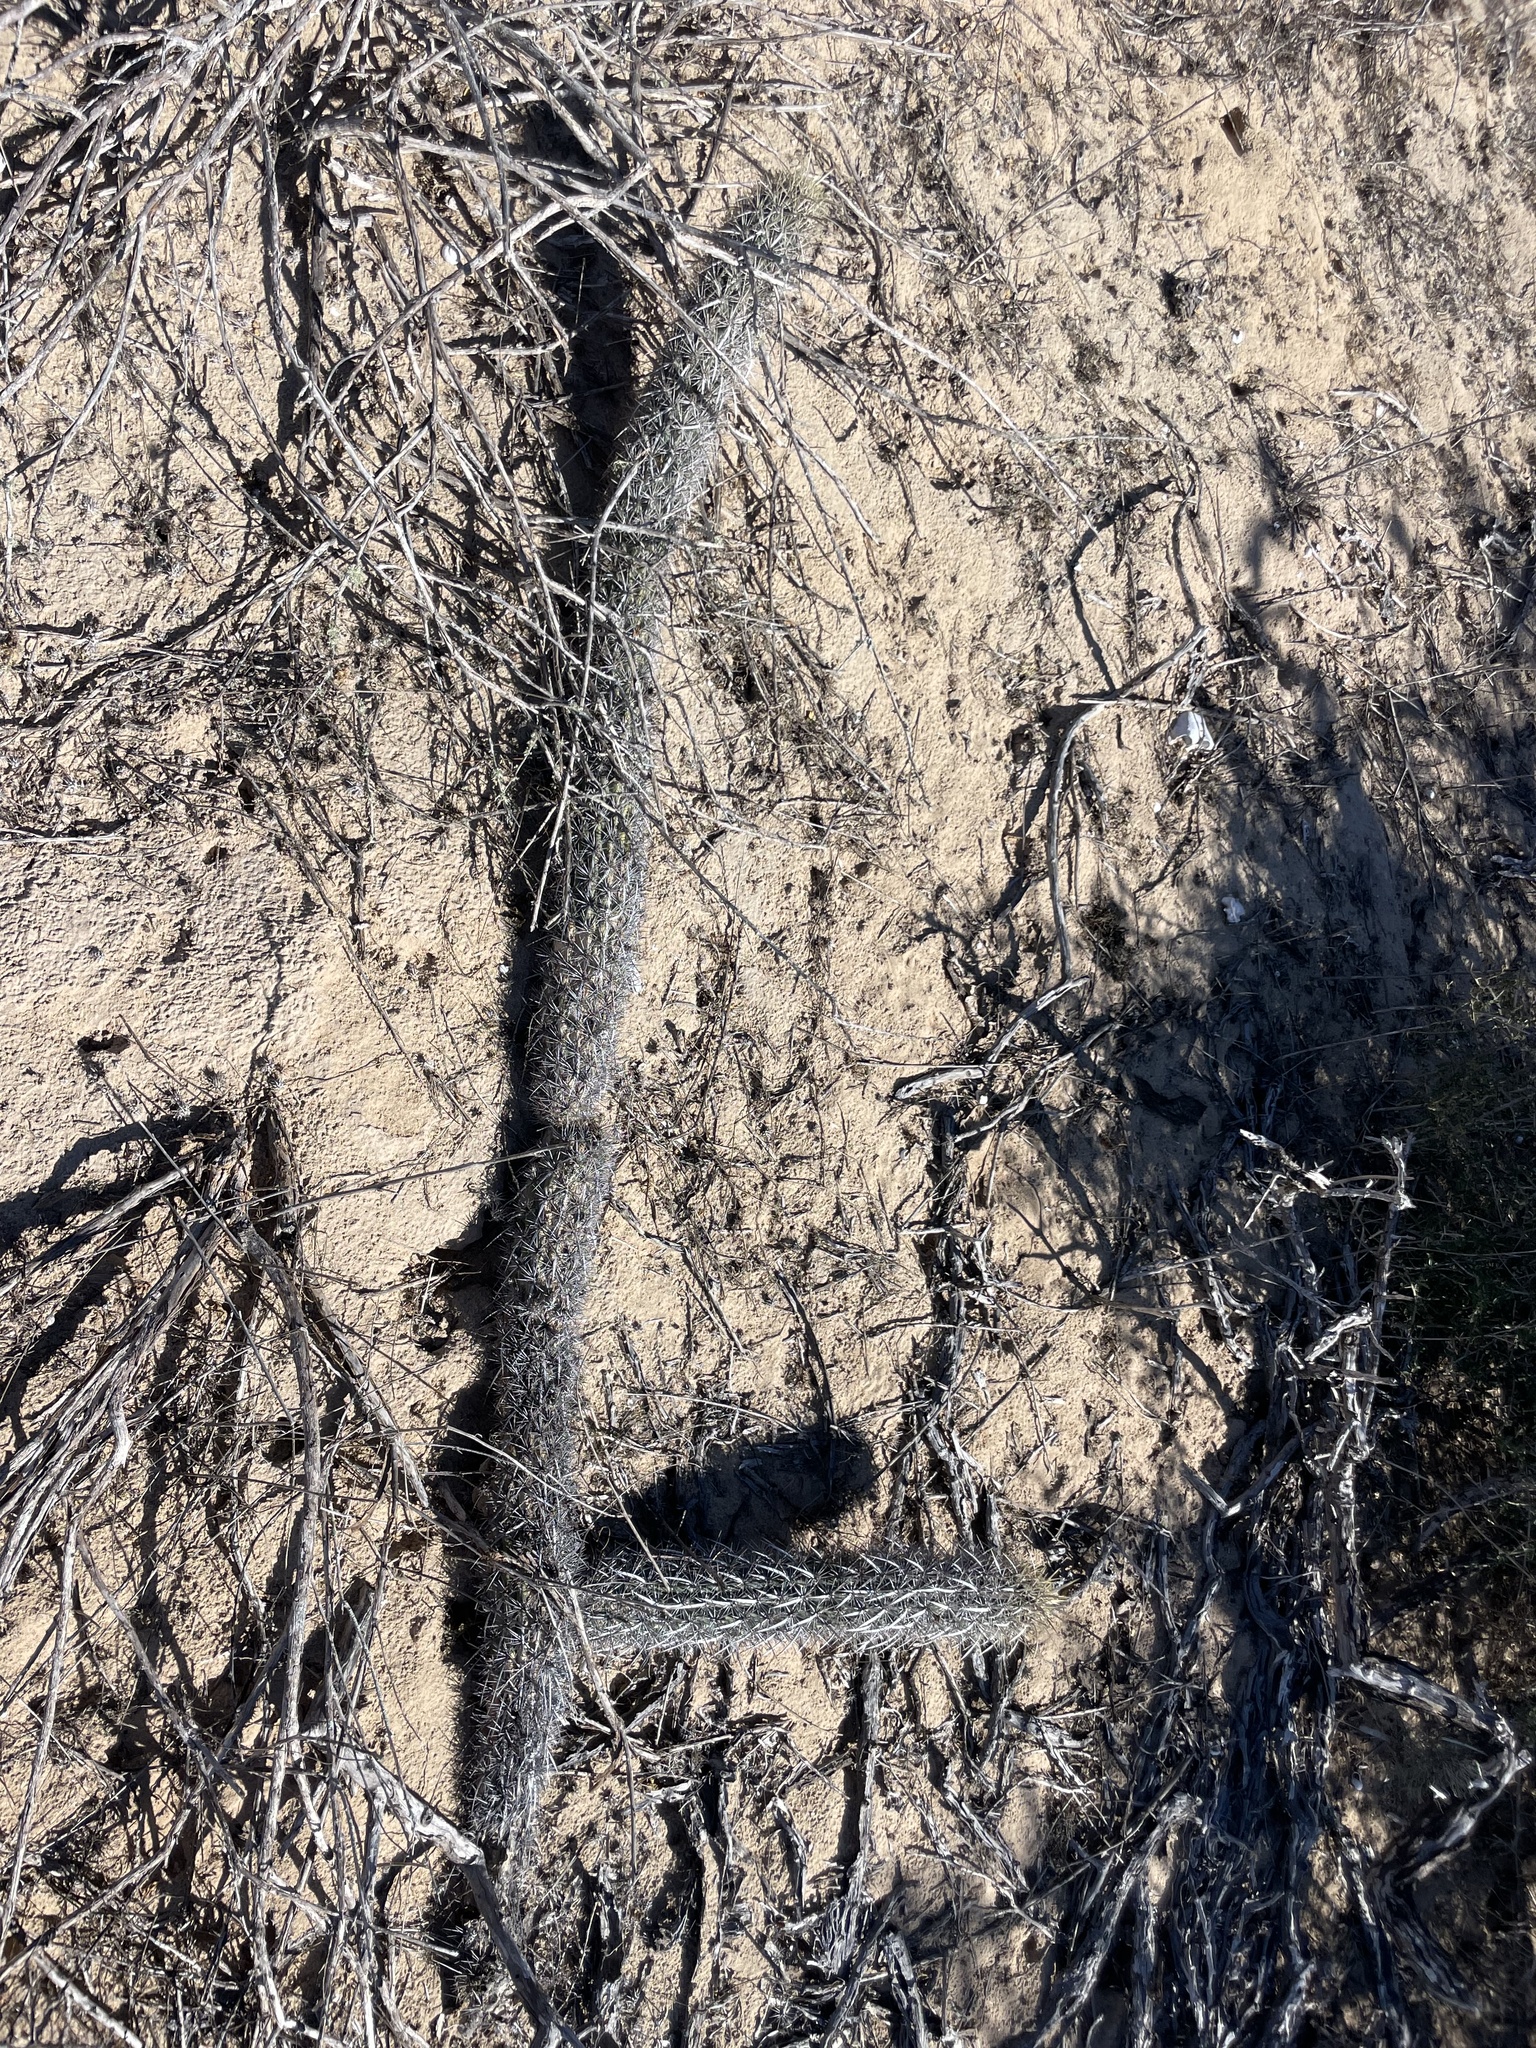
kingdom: Plantae
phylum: Tracheophyta
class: Magnoliopsida
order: Caryophyllales
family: Cactaceae
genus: Stenocereus
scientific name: Stenocereus eruca
